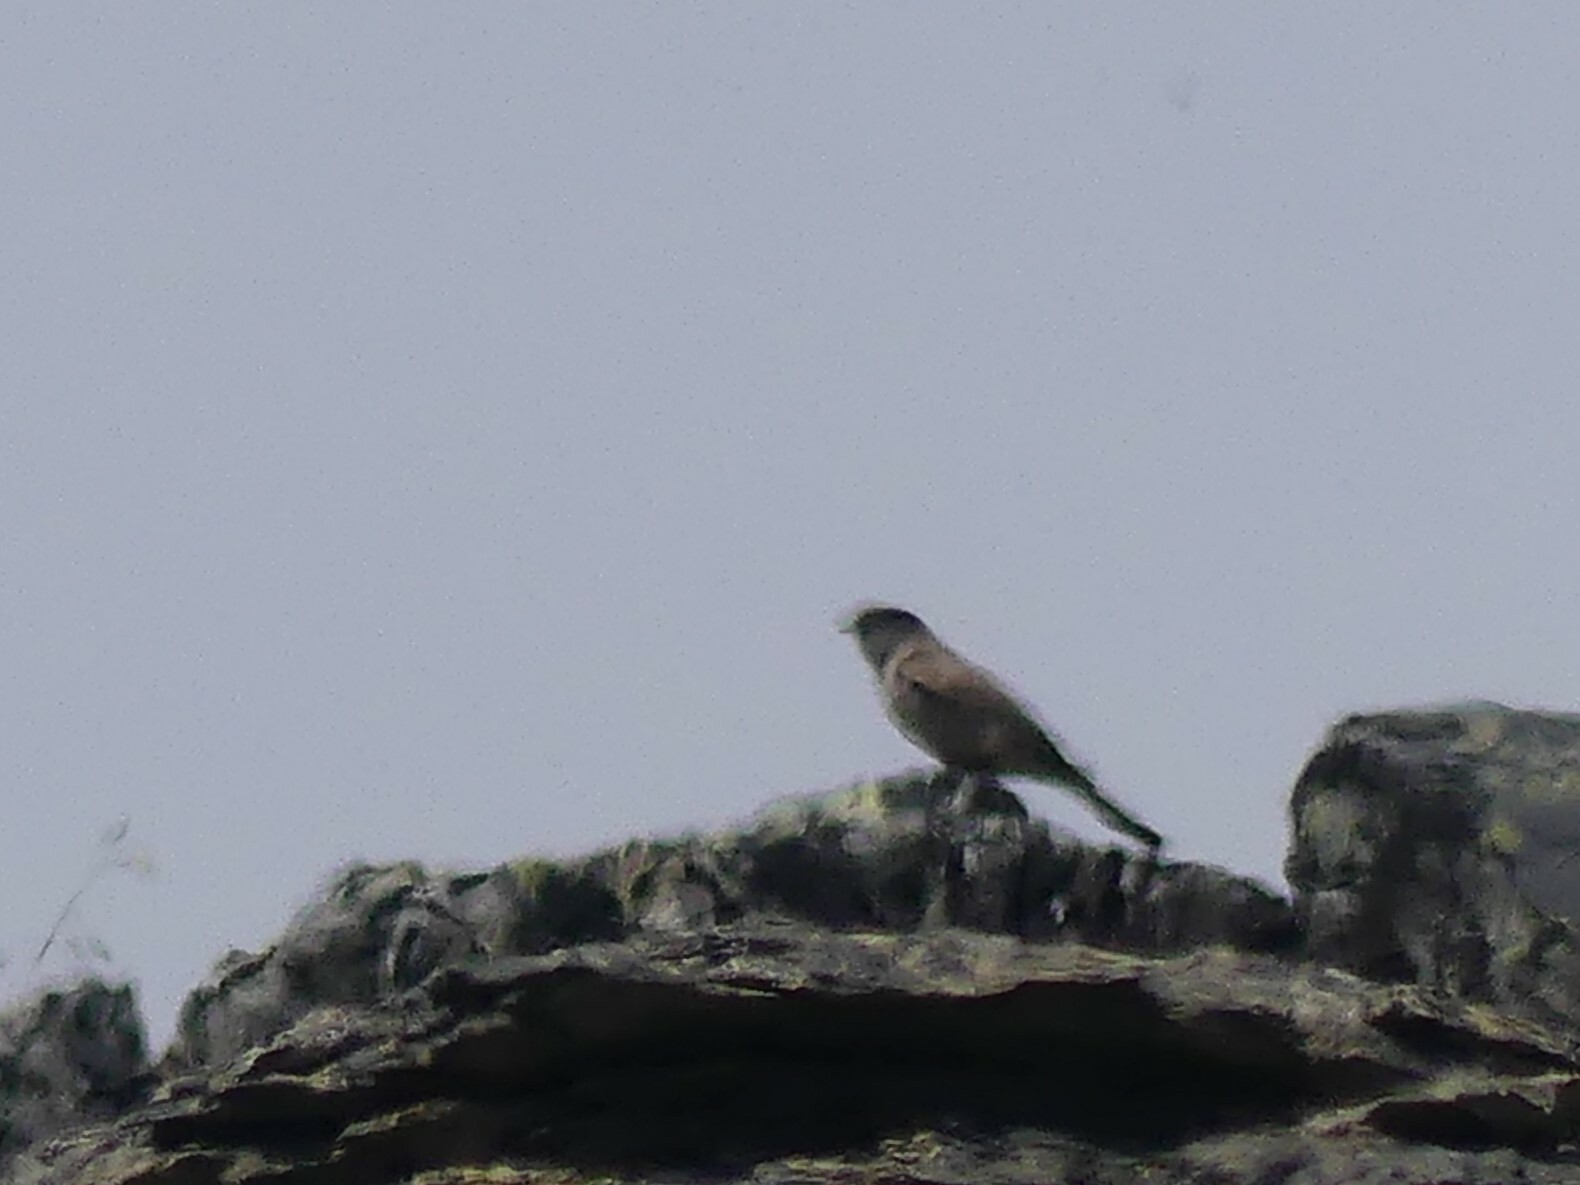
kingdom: Animalia
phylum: Chordata
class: Aves
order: Passeriformes
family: Tyrannidae
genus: Sayornis
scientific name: Sayornis saya
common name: Say's phoebe
